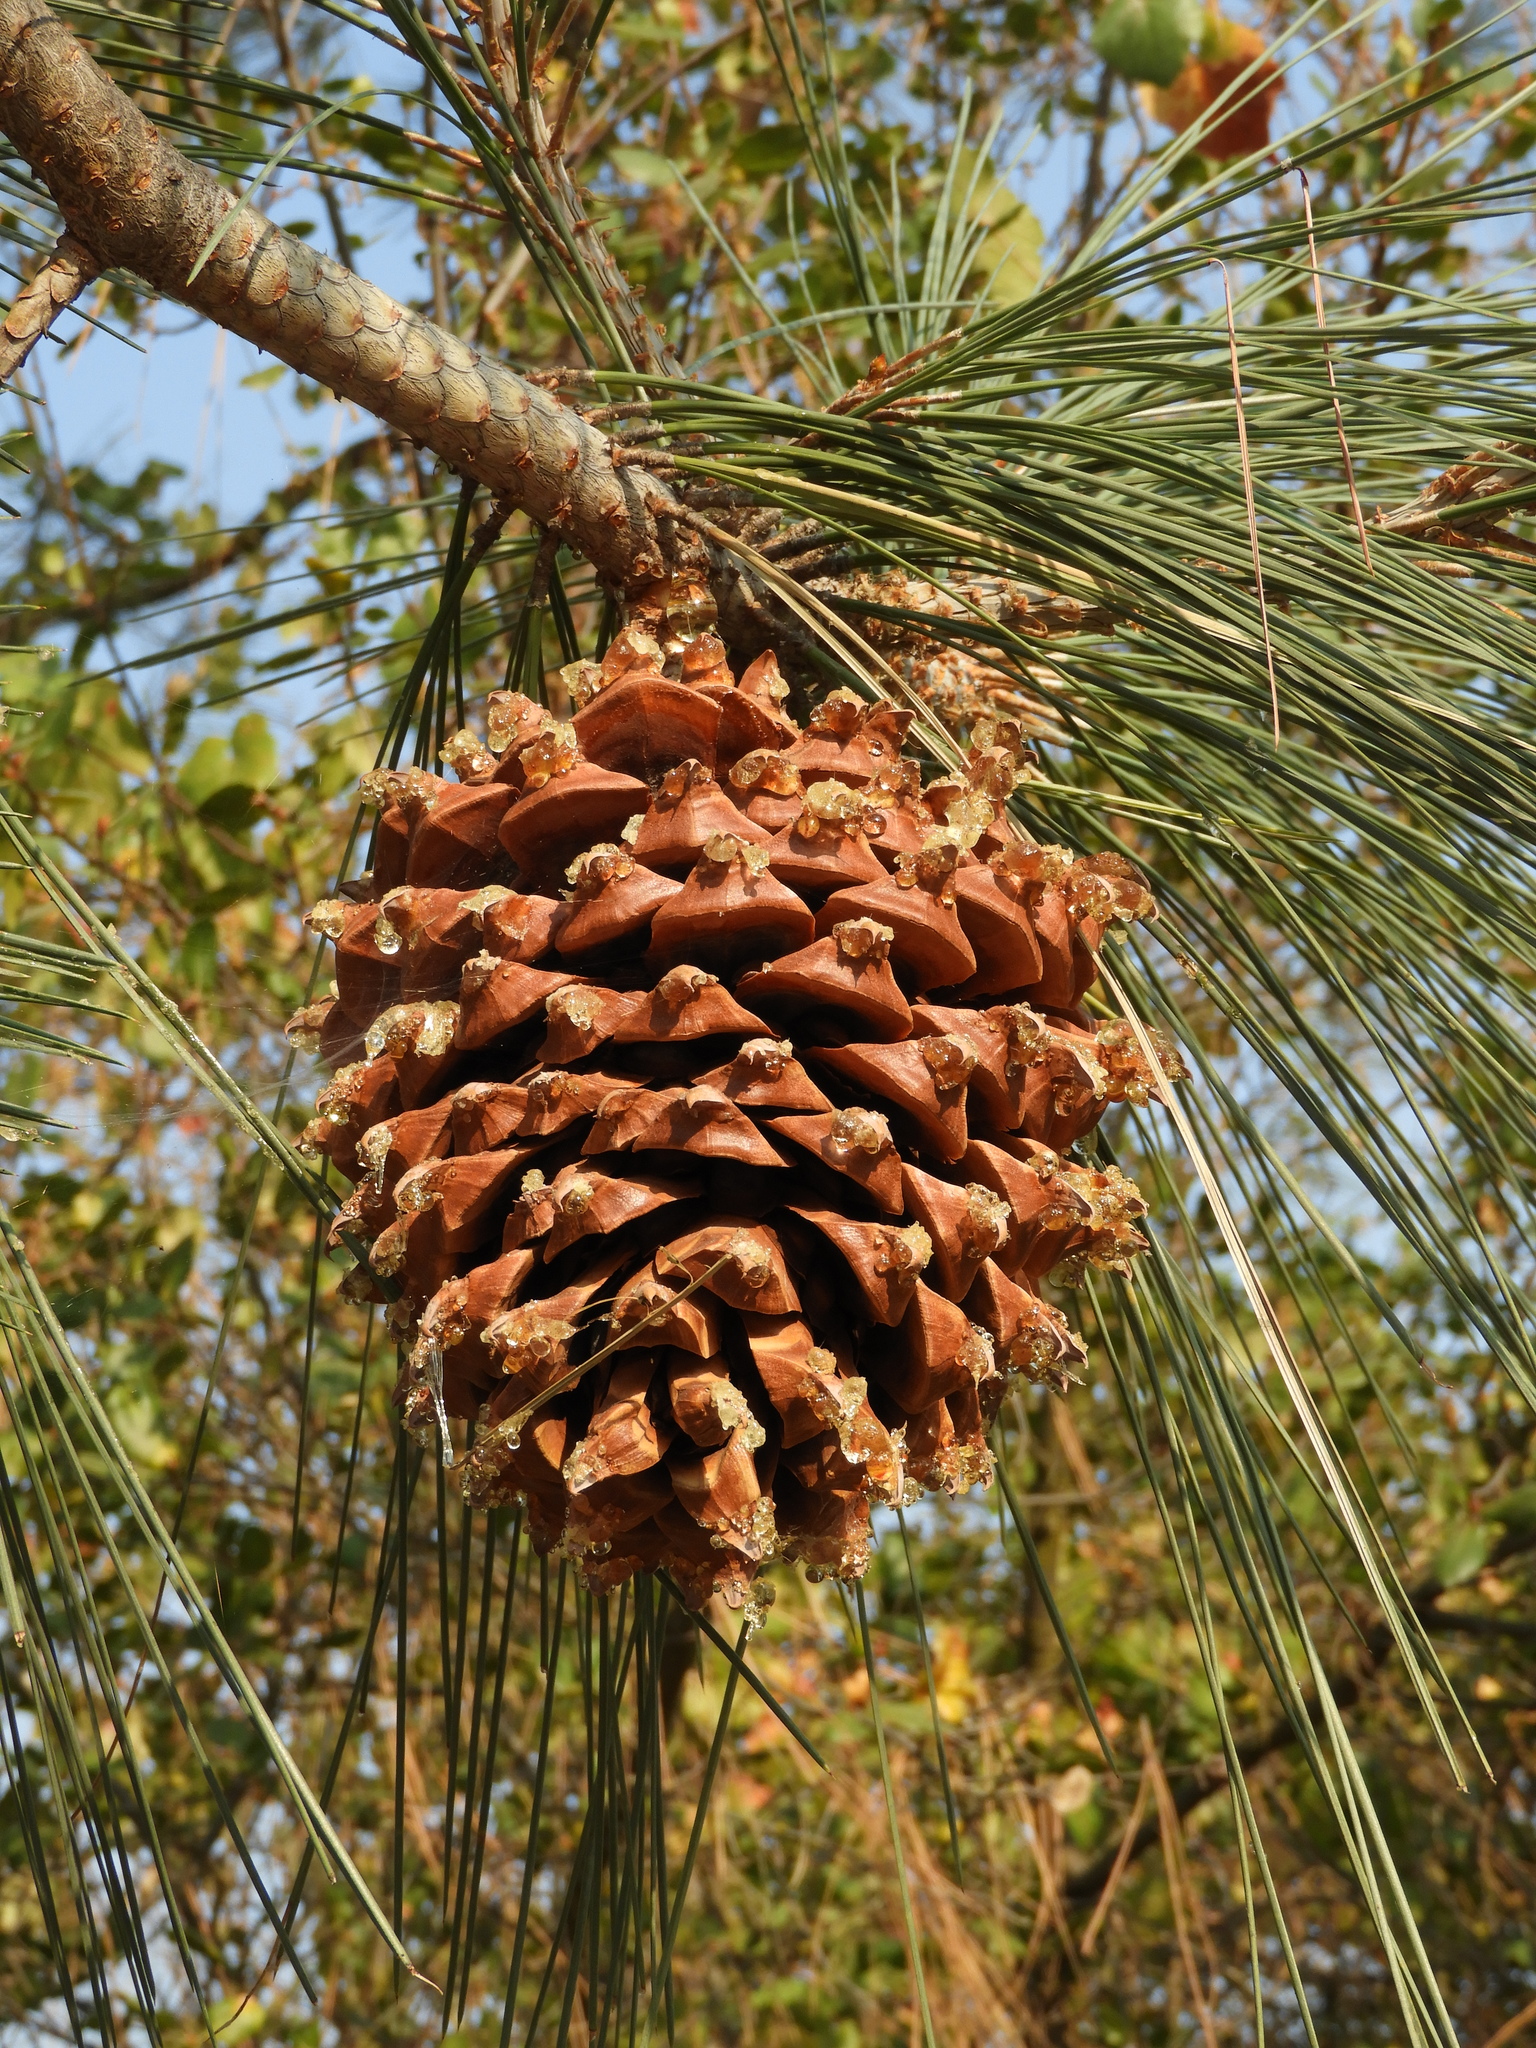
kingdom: Plantae
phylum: Tracheophyta
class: Pinopsida
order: Pinales
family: Pinaceae
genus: Pinus
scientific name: Pinus sabiniana
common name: Bull pine
